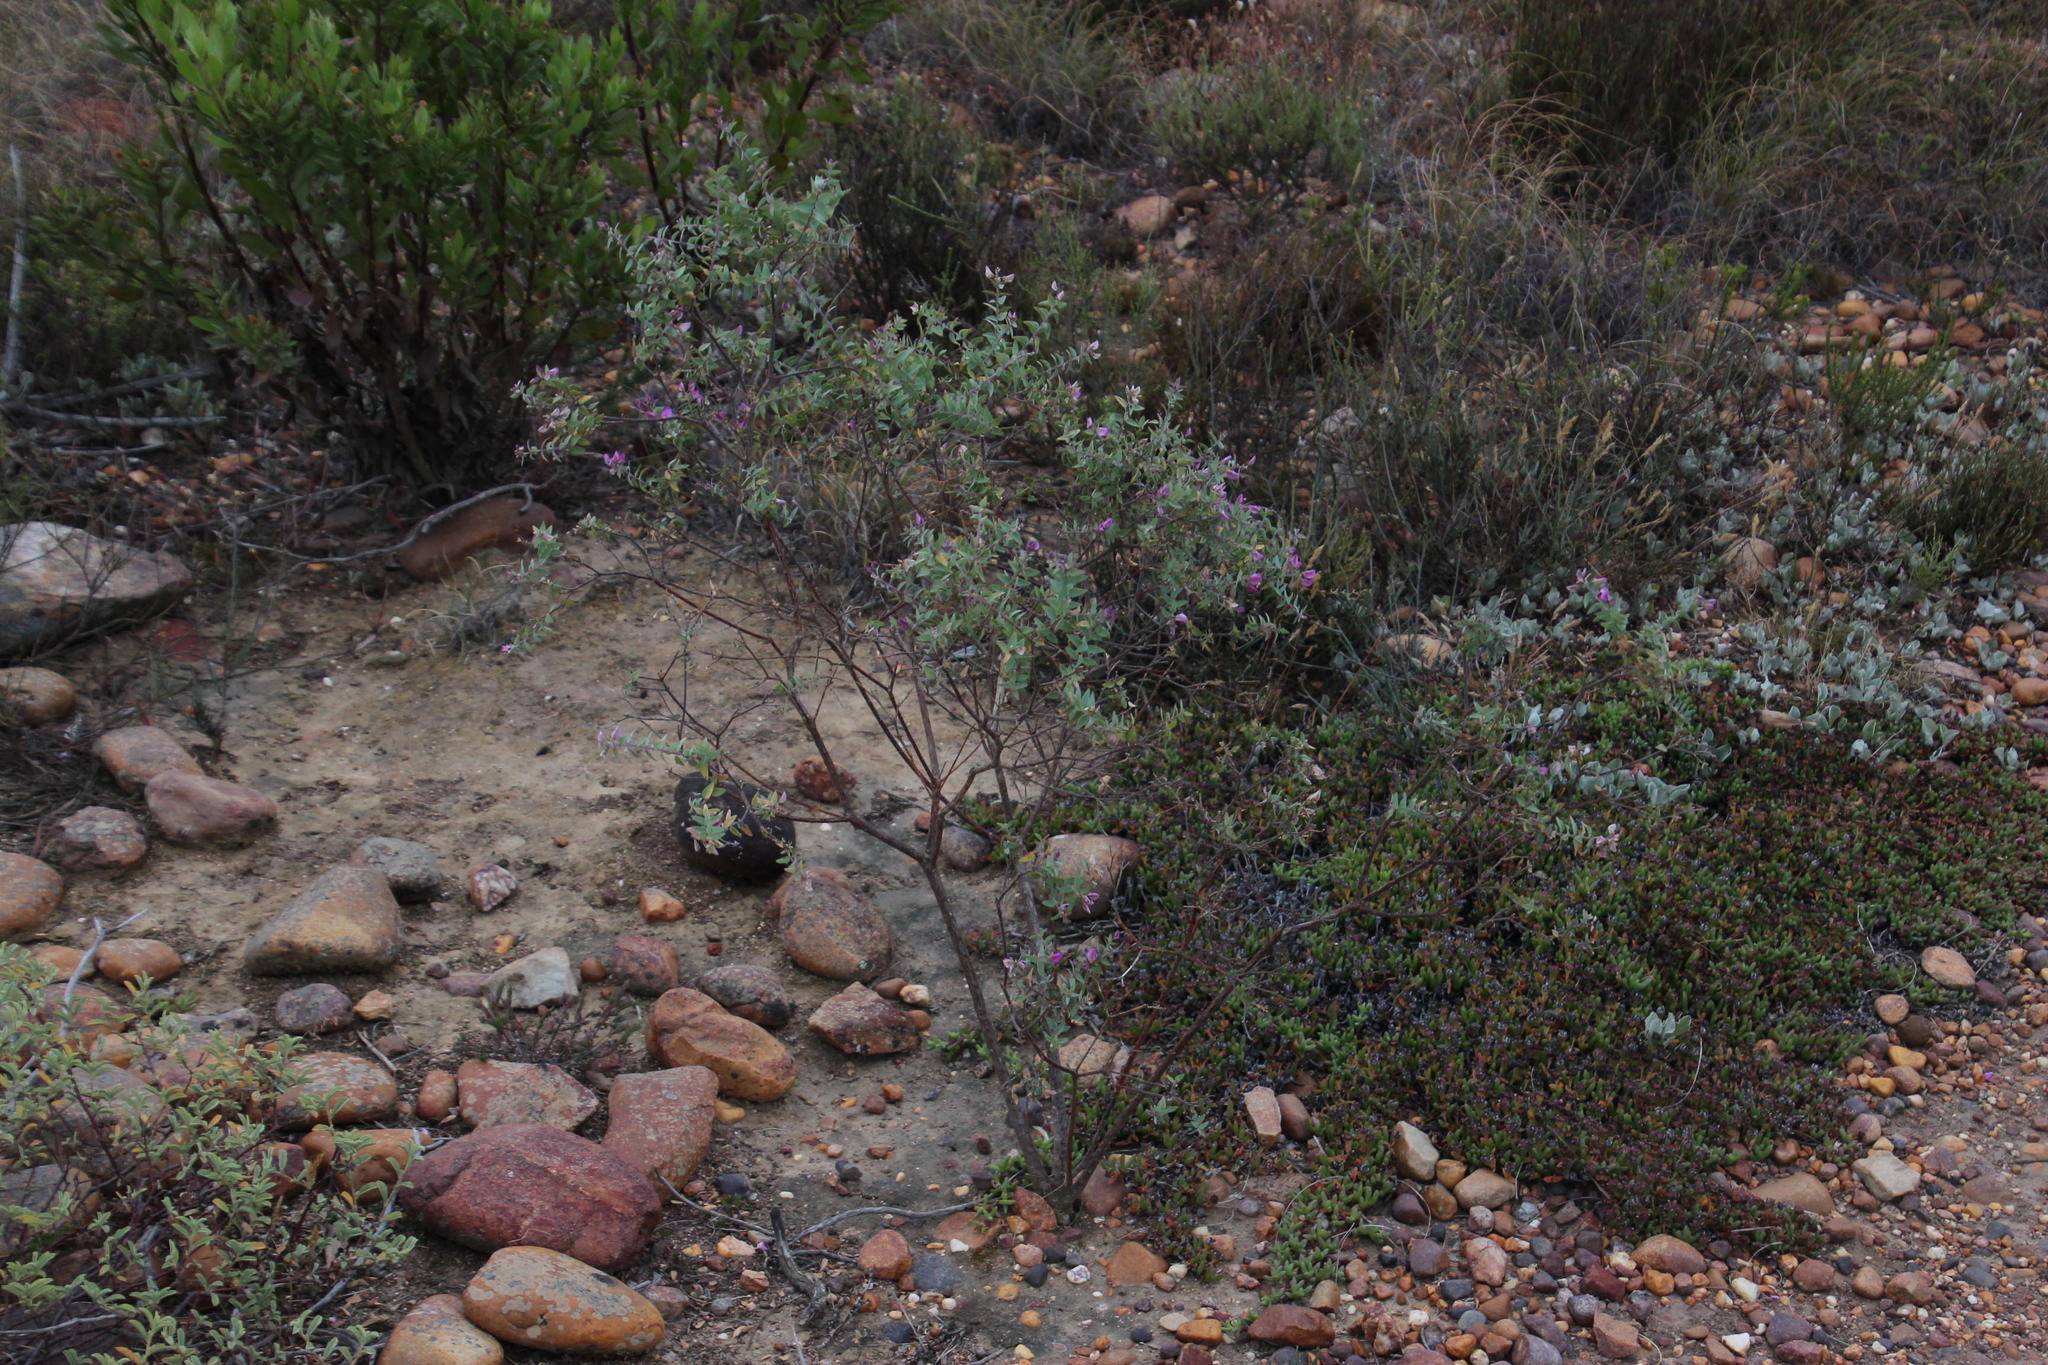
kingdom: Plantae
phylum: Tracheophyta
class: Magnoliopsida
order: Fabales
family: Polygalaceae
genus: Polygala
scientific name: Polygala fruticosa
